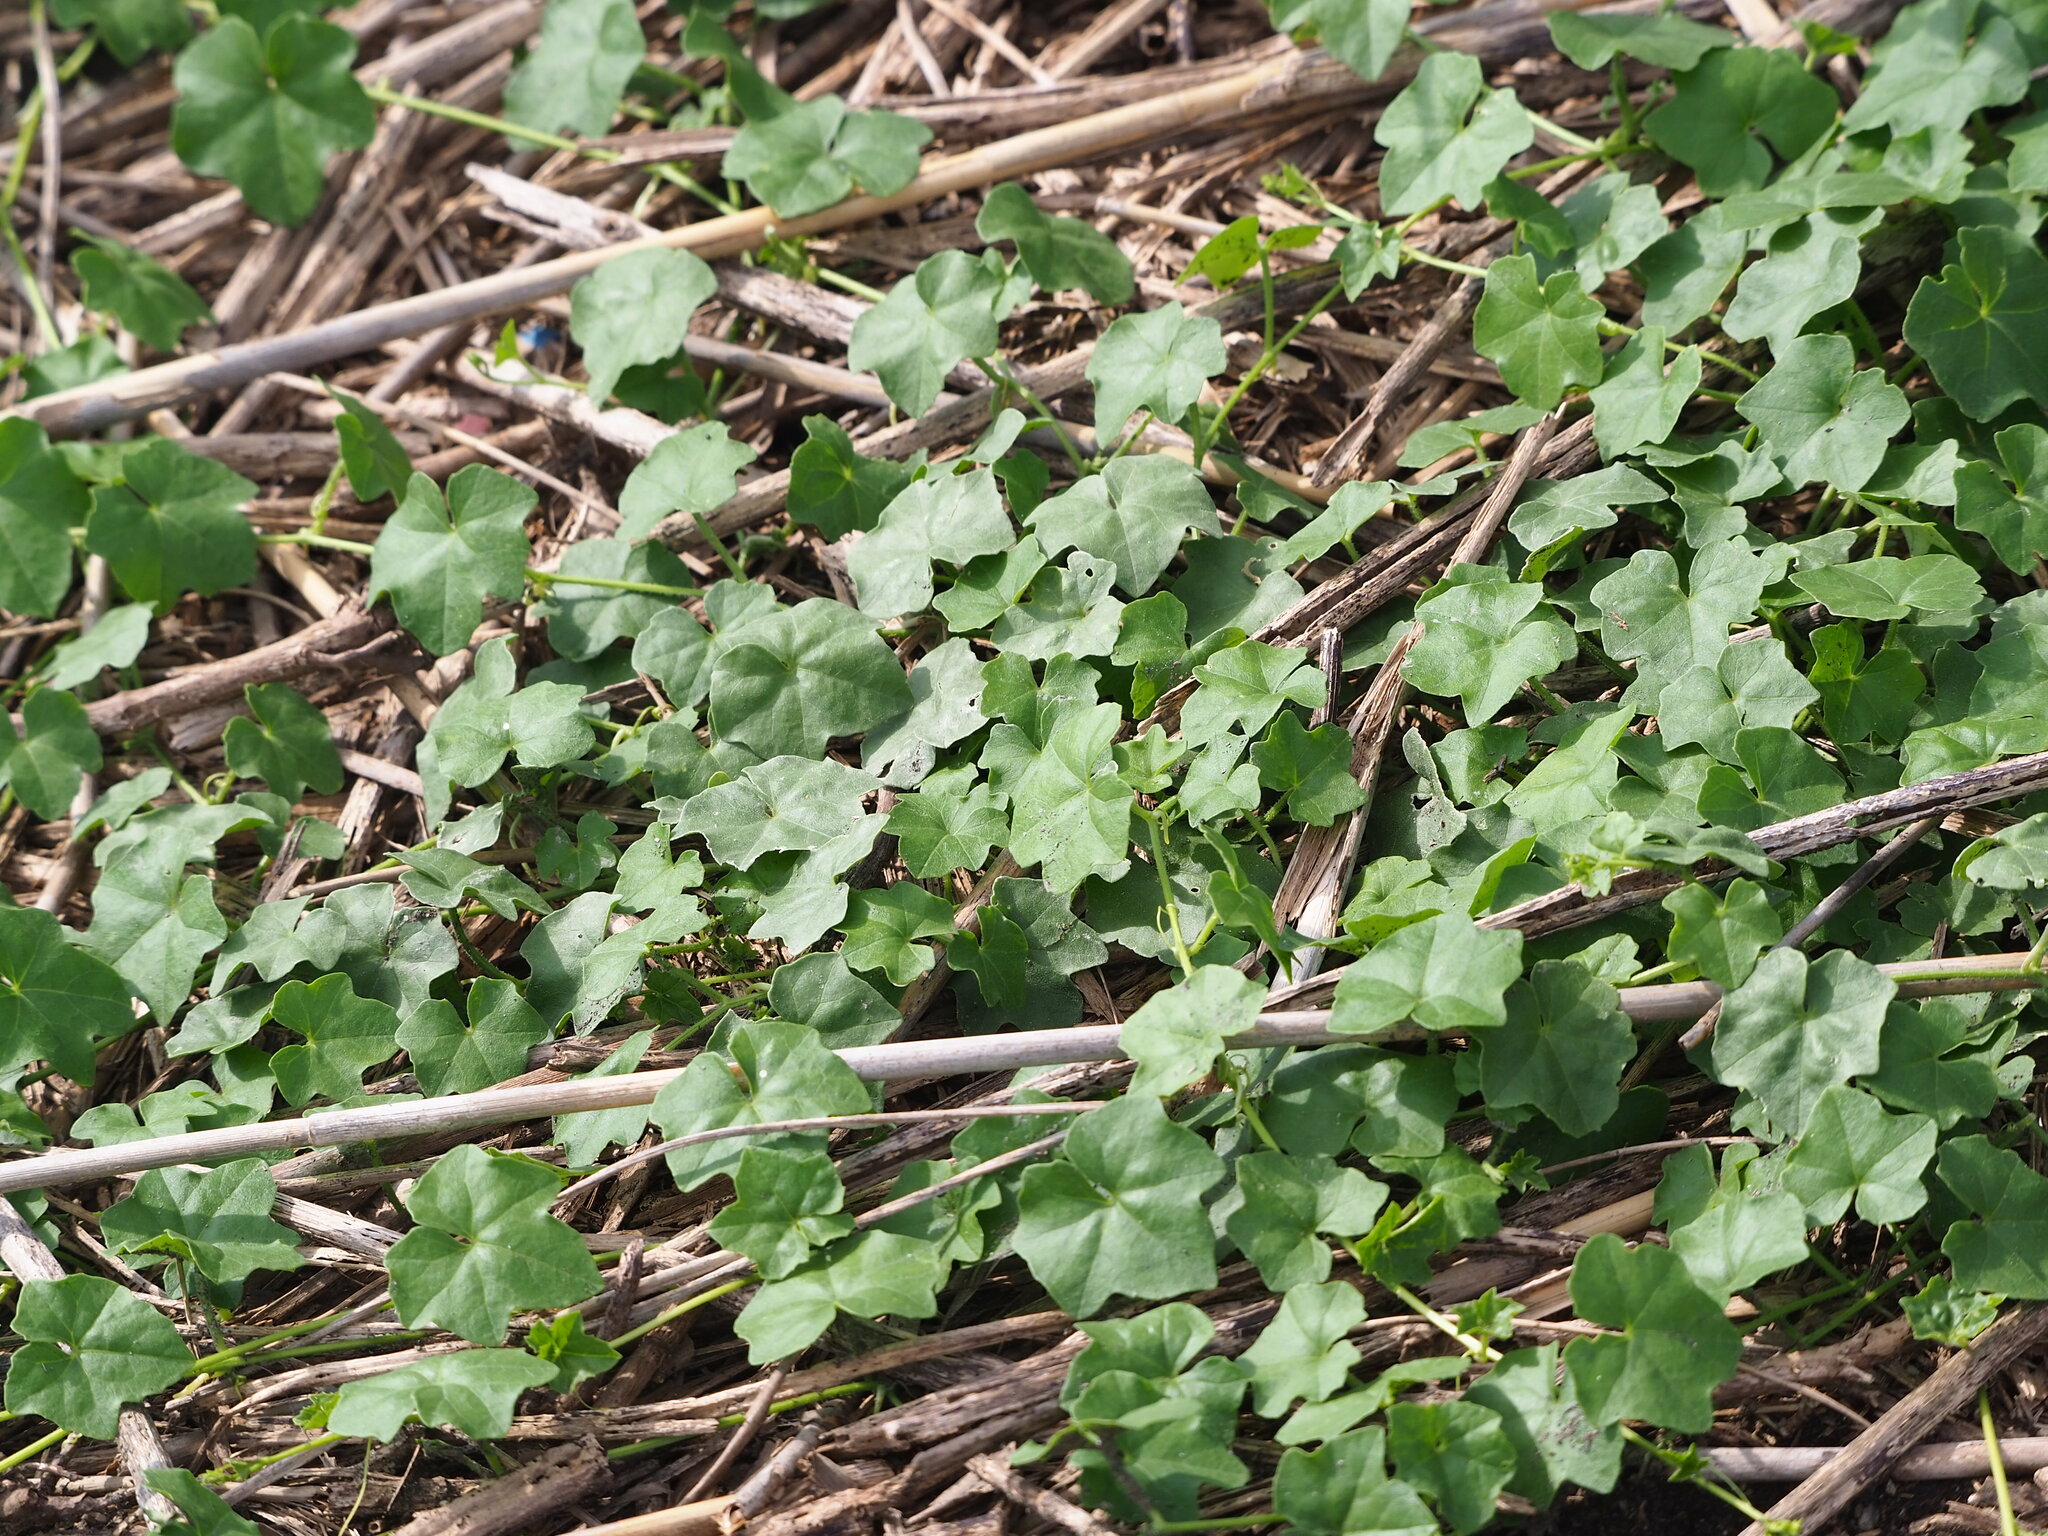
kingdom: Plantae
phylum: Tracheophyta
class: Magnoliopsida
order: Cucurbitales
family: Cucurbitaceae
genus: Melothria
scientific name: Melothria pendula
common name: Creeping-cucumber
